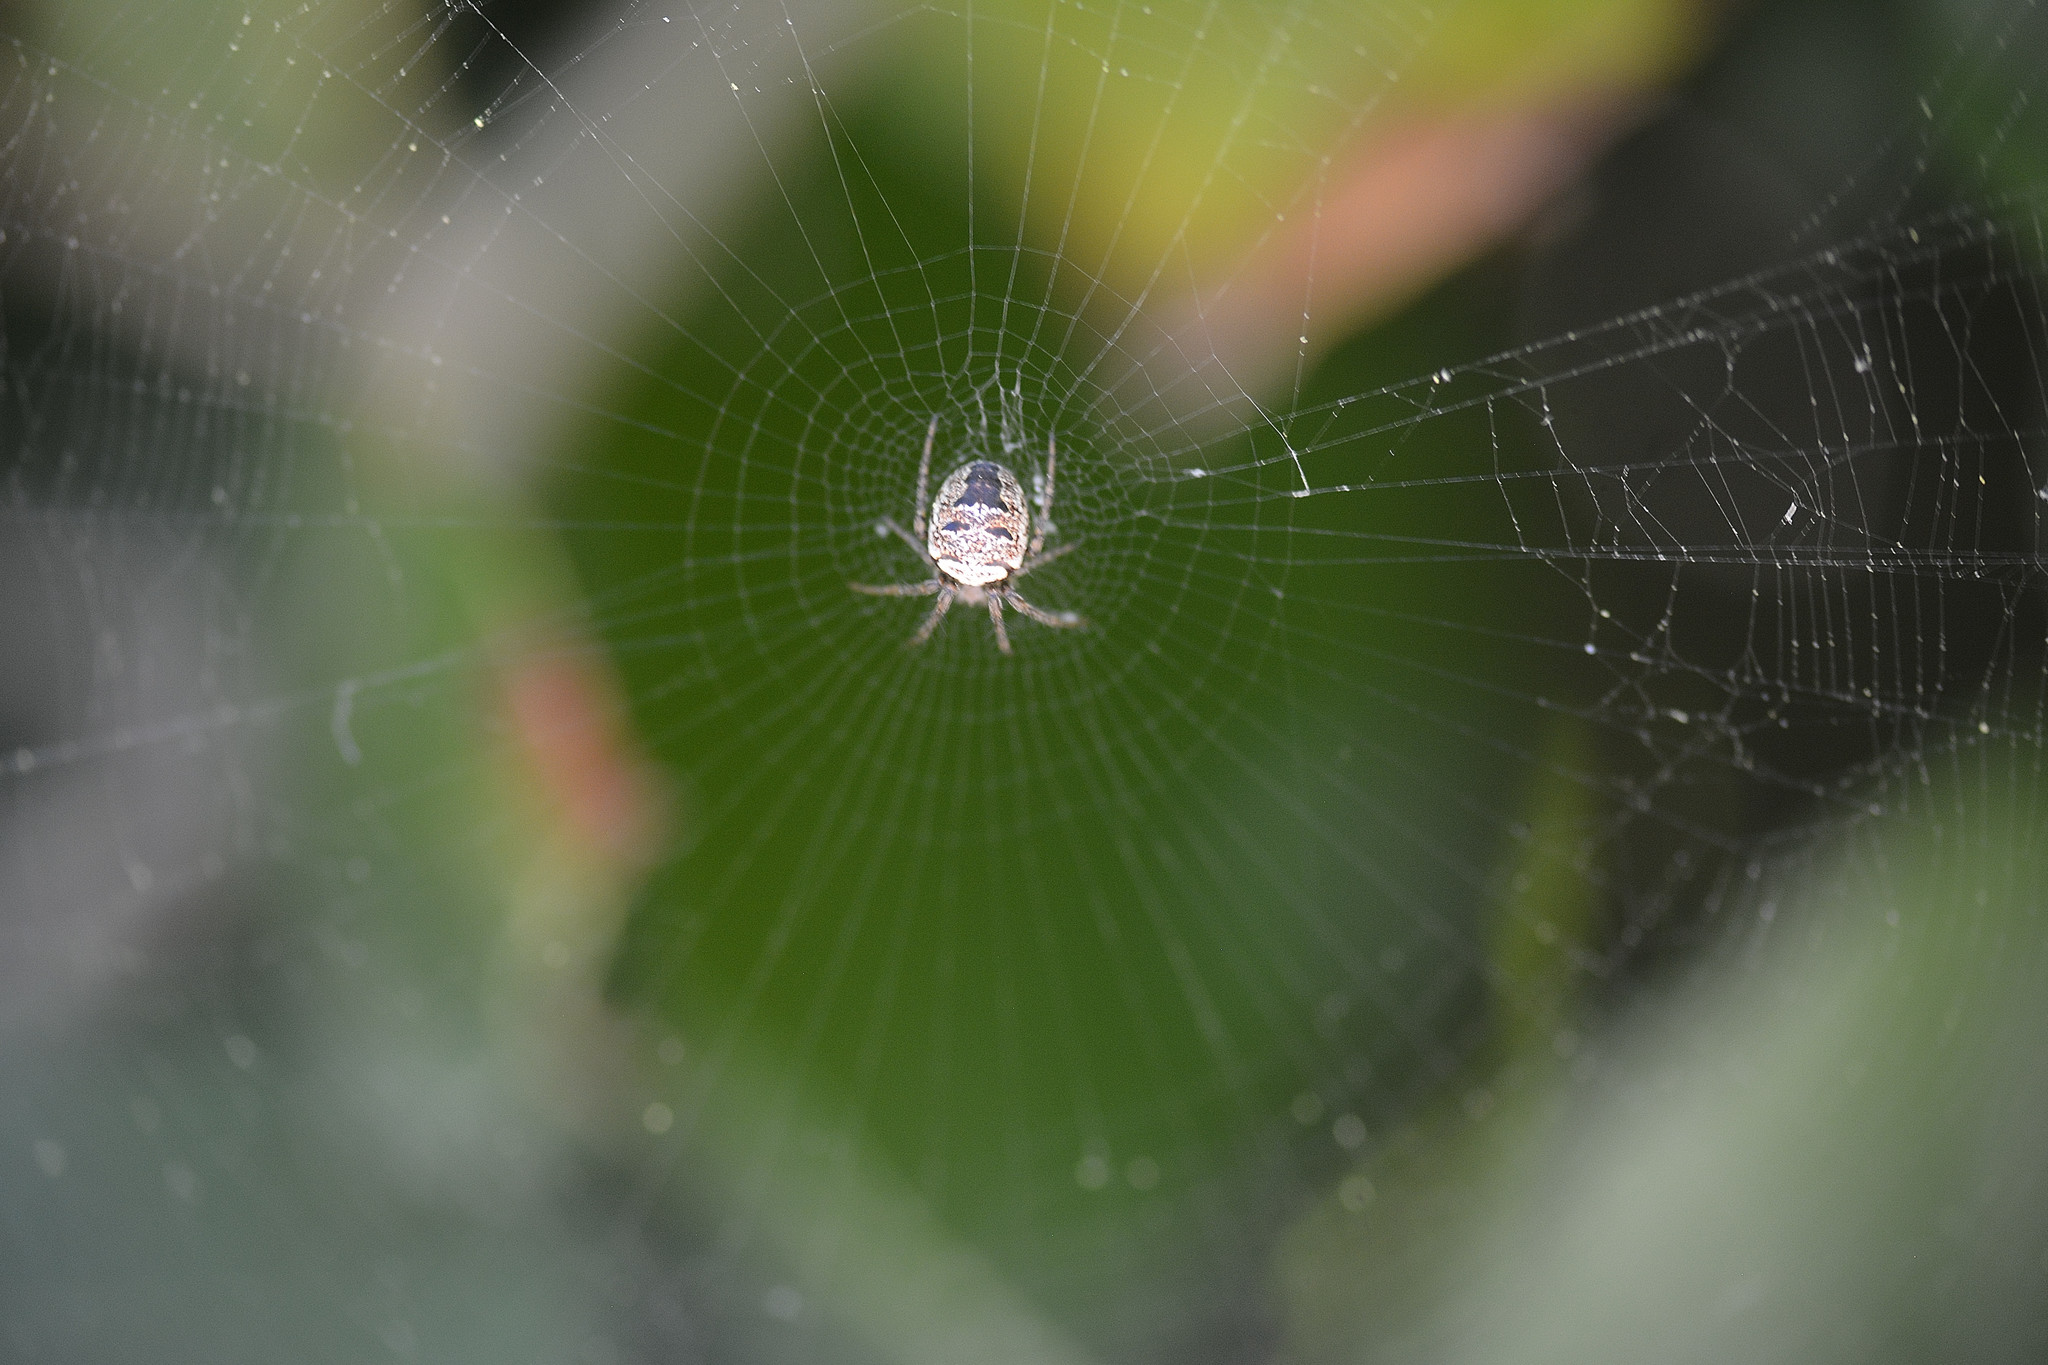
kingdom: Animalia
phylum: Arthropoda
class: Arachnida
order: Araneae
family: Araneidae
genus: Zilla
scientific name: Zilla diodia
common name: Zilla diodia
